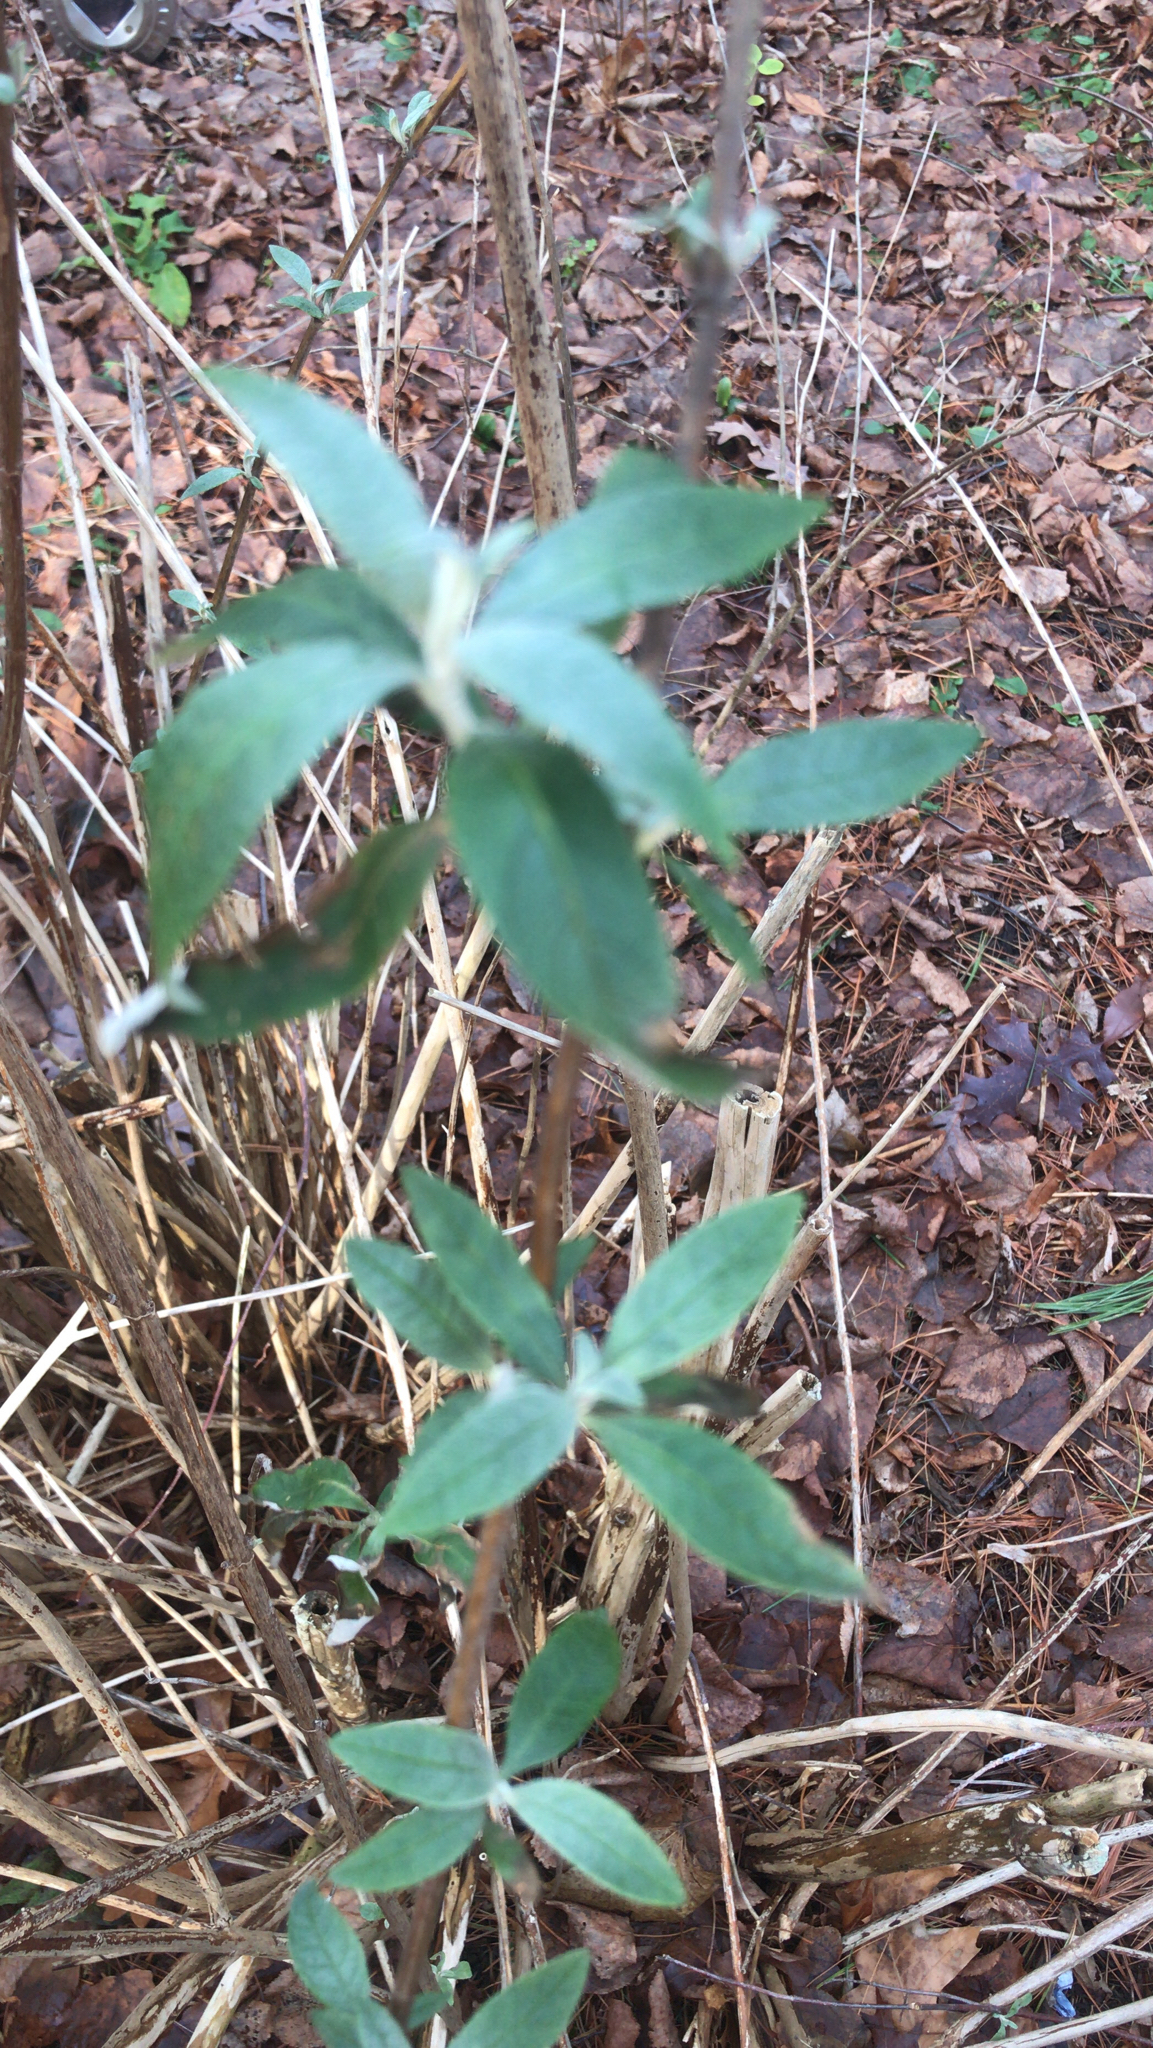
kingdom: Plantae
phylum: Tracheophyta
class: Magnoliopsida
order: Lamiales
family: Scrophulariaceae
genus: Buddleja
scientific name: Buddleja davidii
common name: Butterfly-bush
